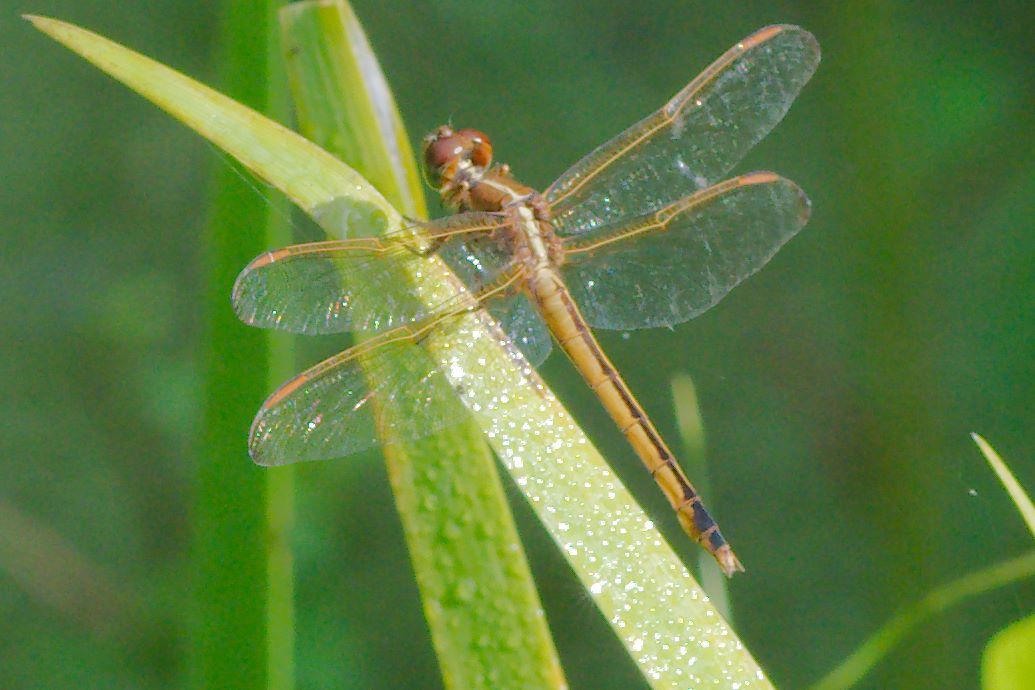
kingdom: Animalia
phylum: Arthropoda
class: Insecta
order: Odonata
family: Libellulidae
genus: Libellula
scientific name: Libellula needhami
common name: Needham's skimmer
